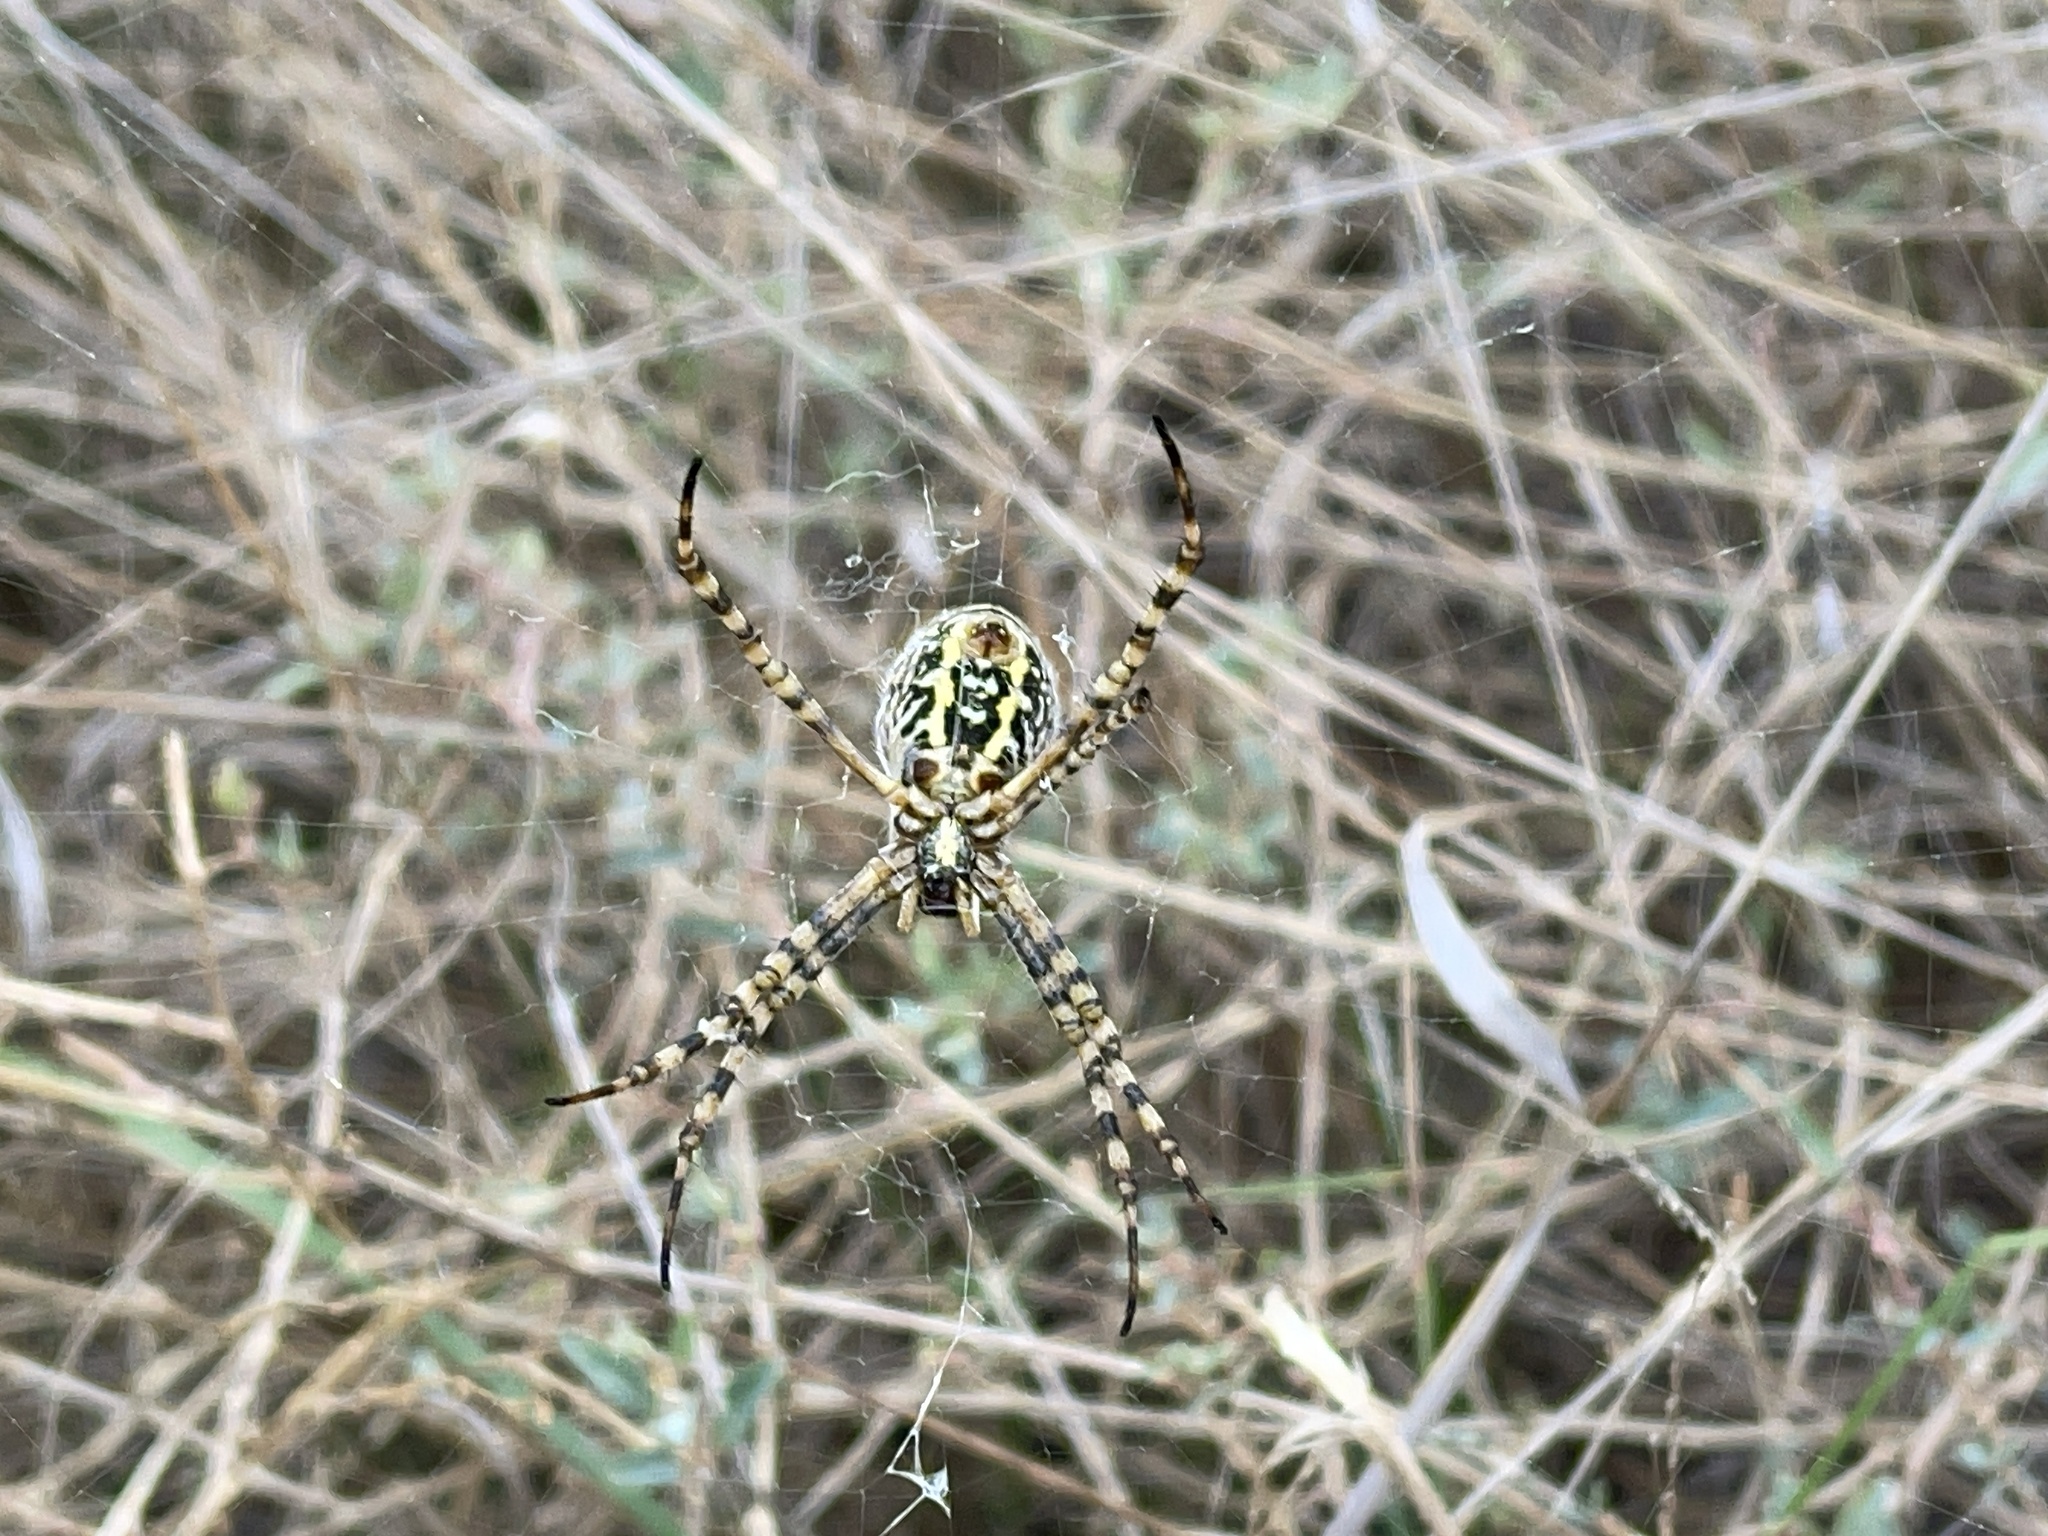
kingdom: Animalia
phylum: Arthropoda
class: Arachnida
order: Araneae
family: Araneidae
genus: Argiope
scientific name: Argiope trifasciata
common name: Banded garden spider
